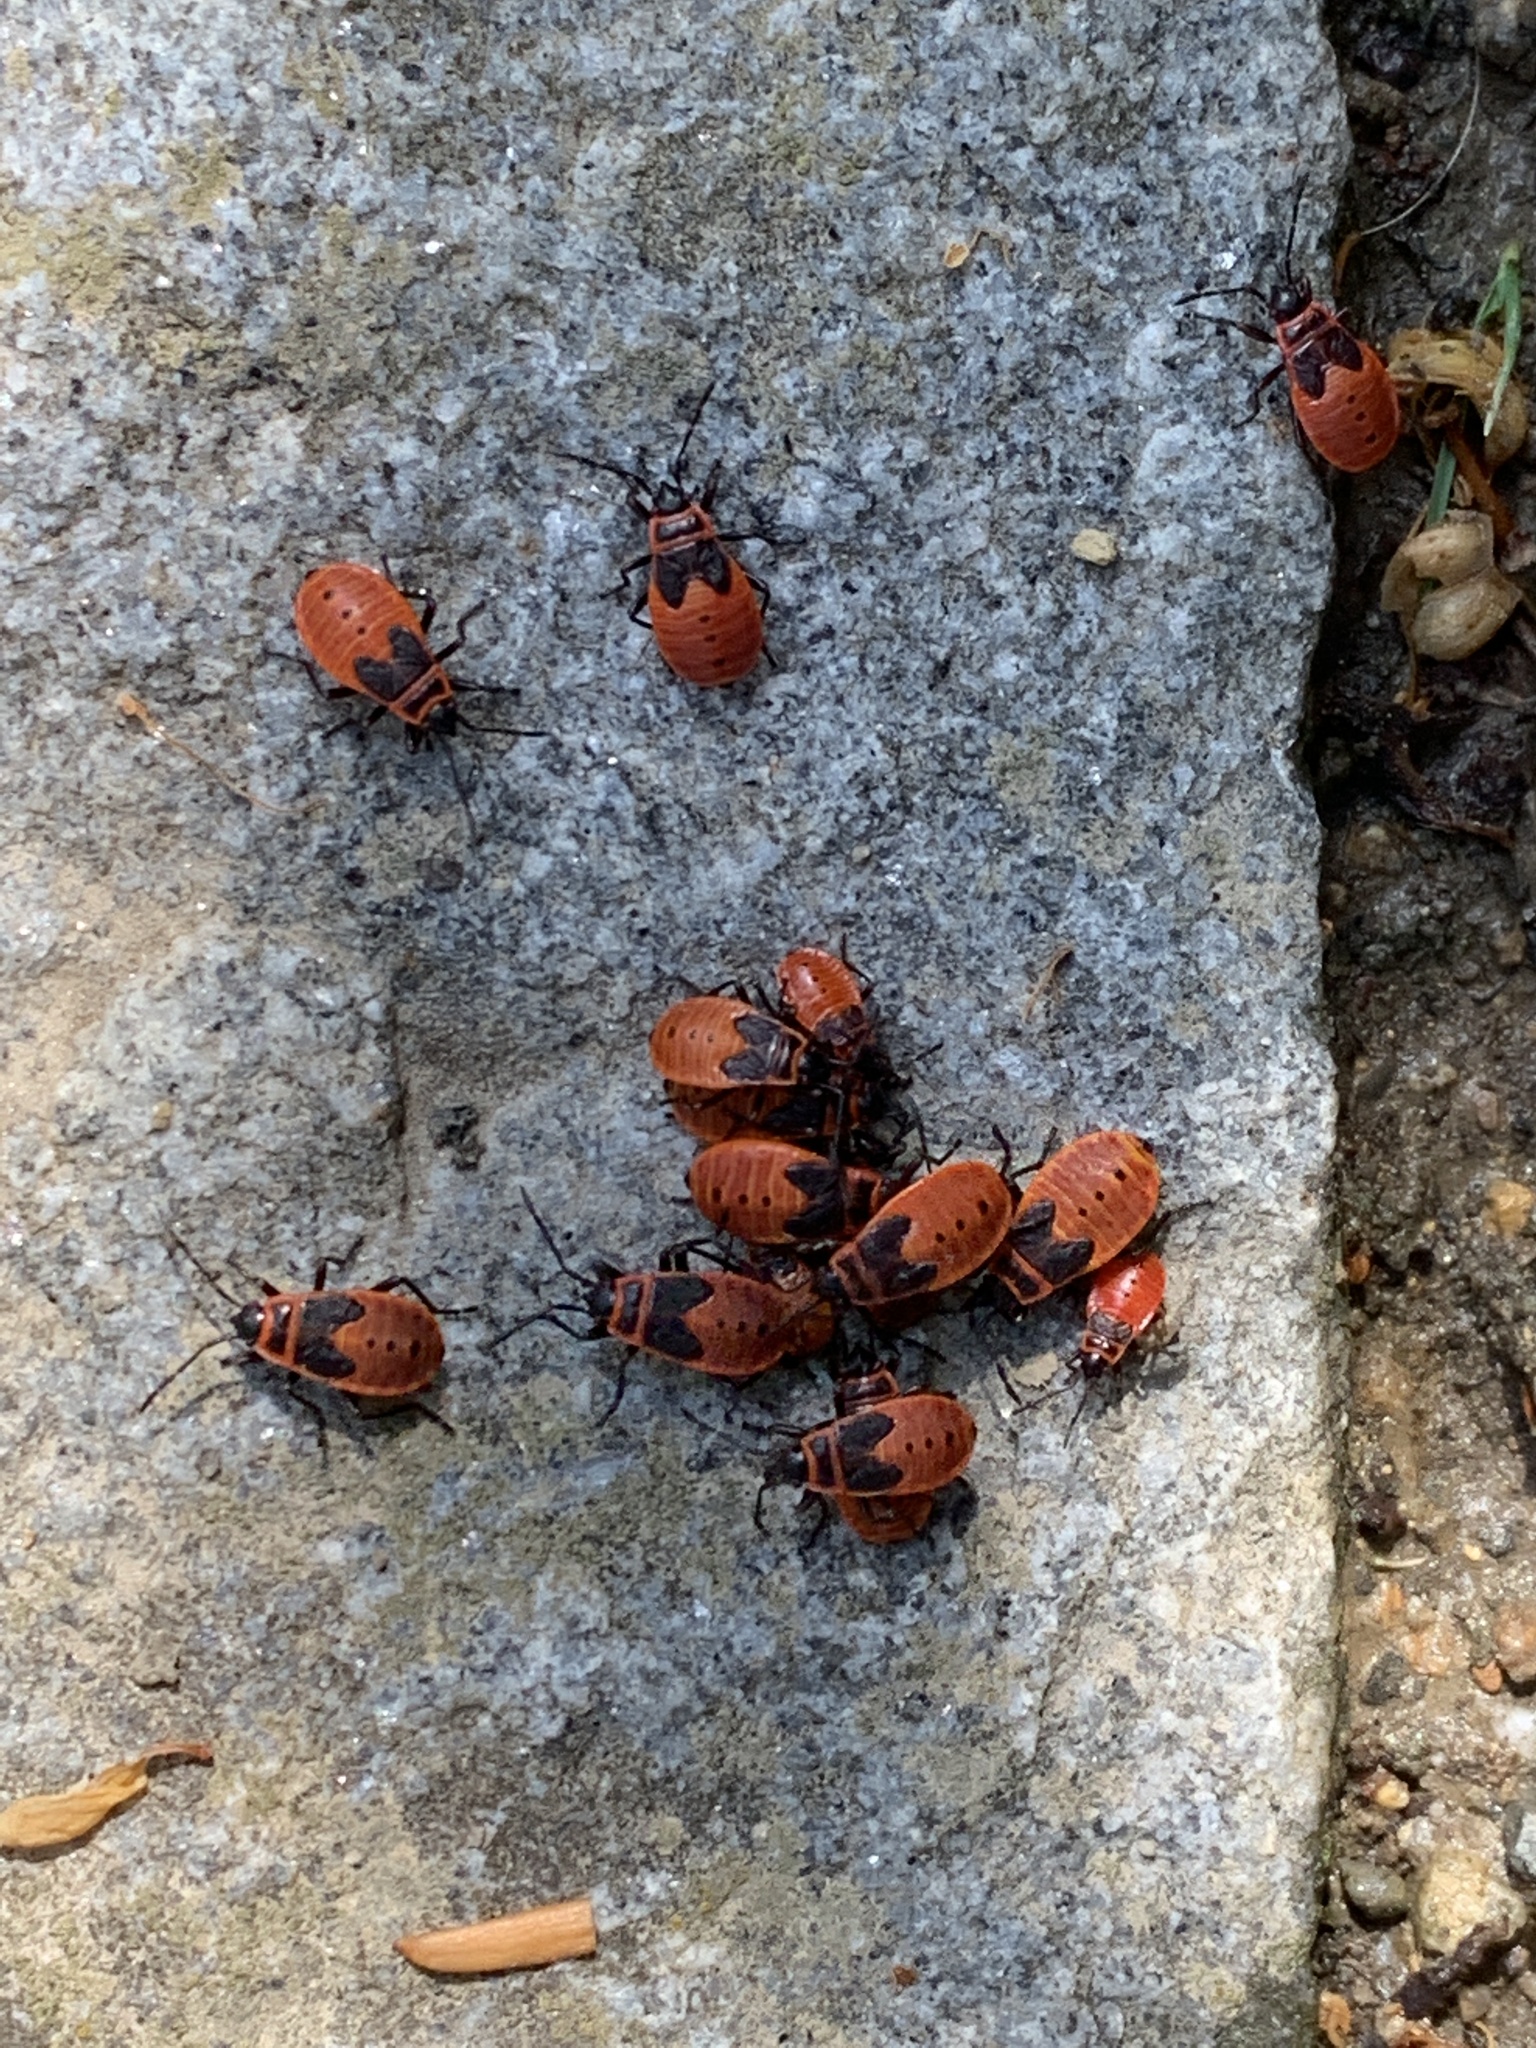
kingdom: Animalia
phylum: Arthropoda
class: Insecta
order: Hemiptera
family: Pyrrhocoridae
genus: Pyrrhocoris
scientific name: Pyrrhocoris apterus
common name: Firebug
